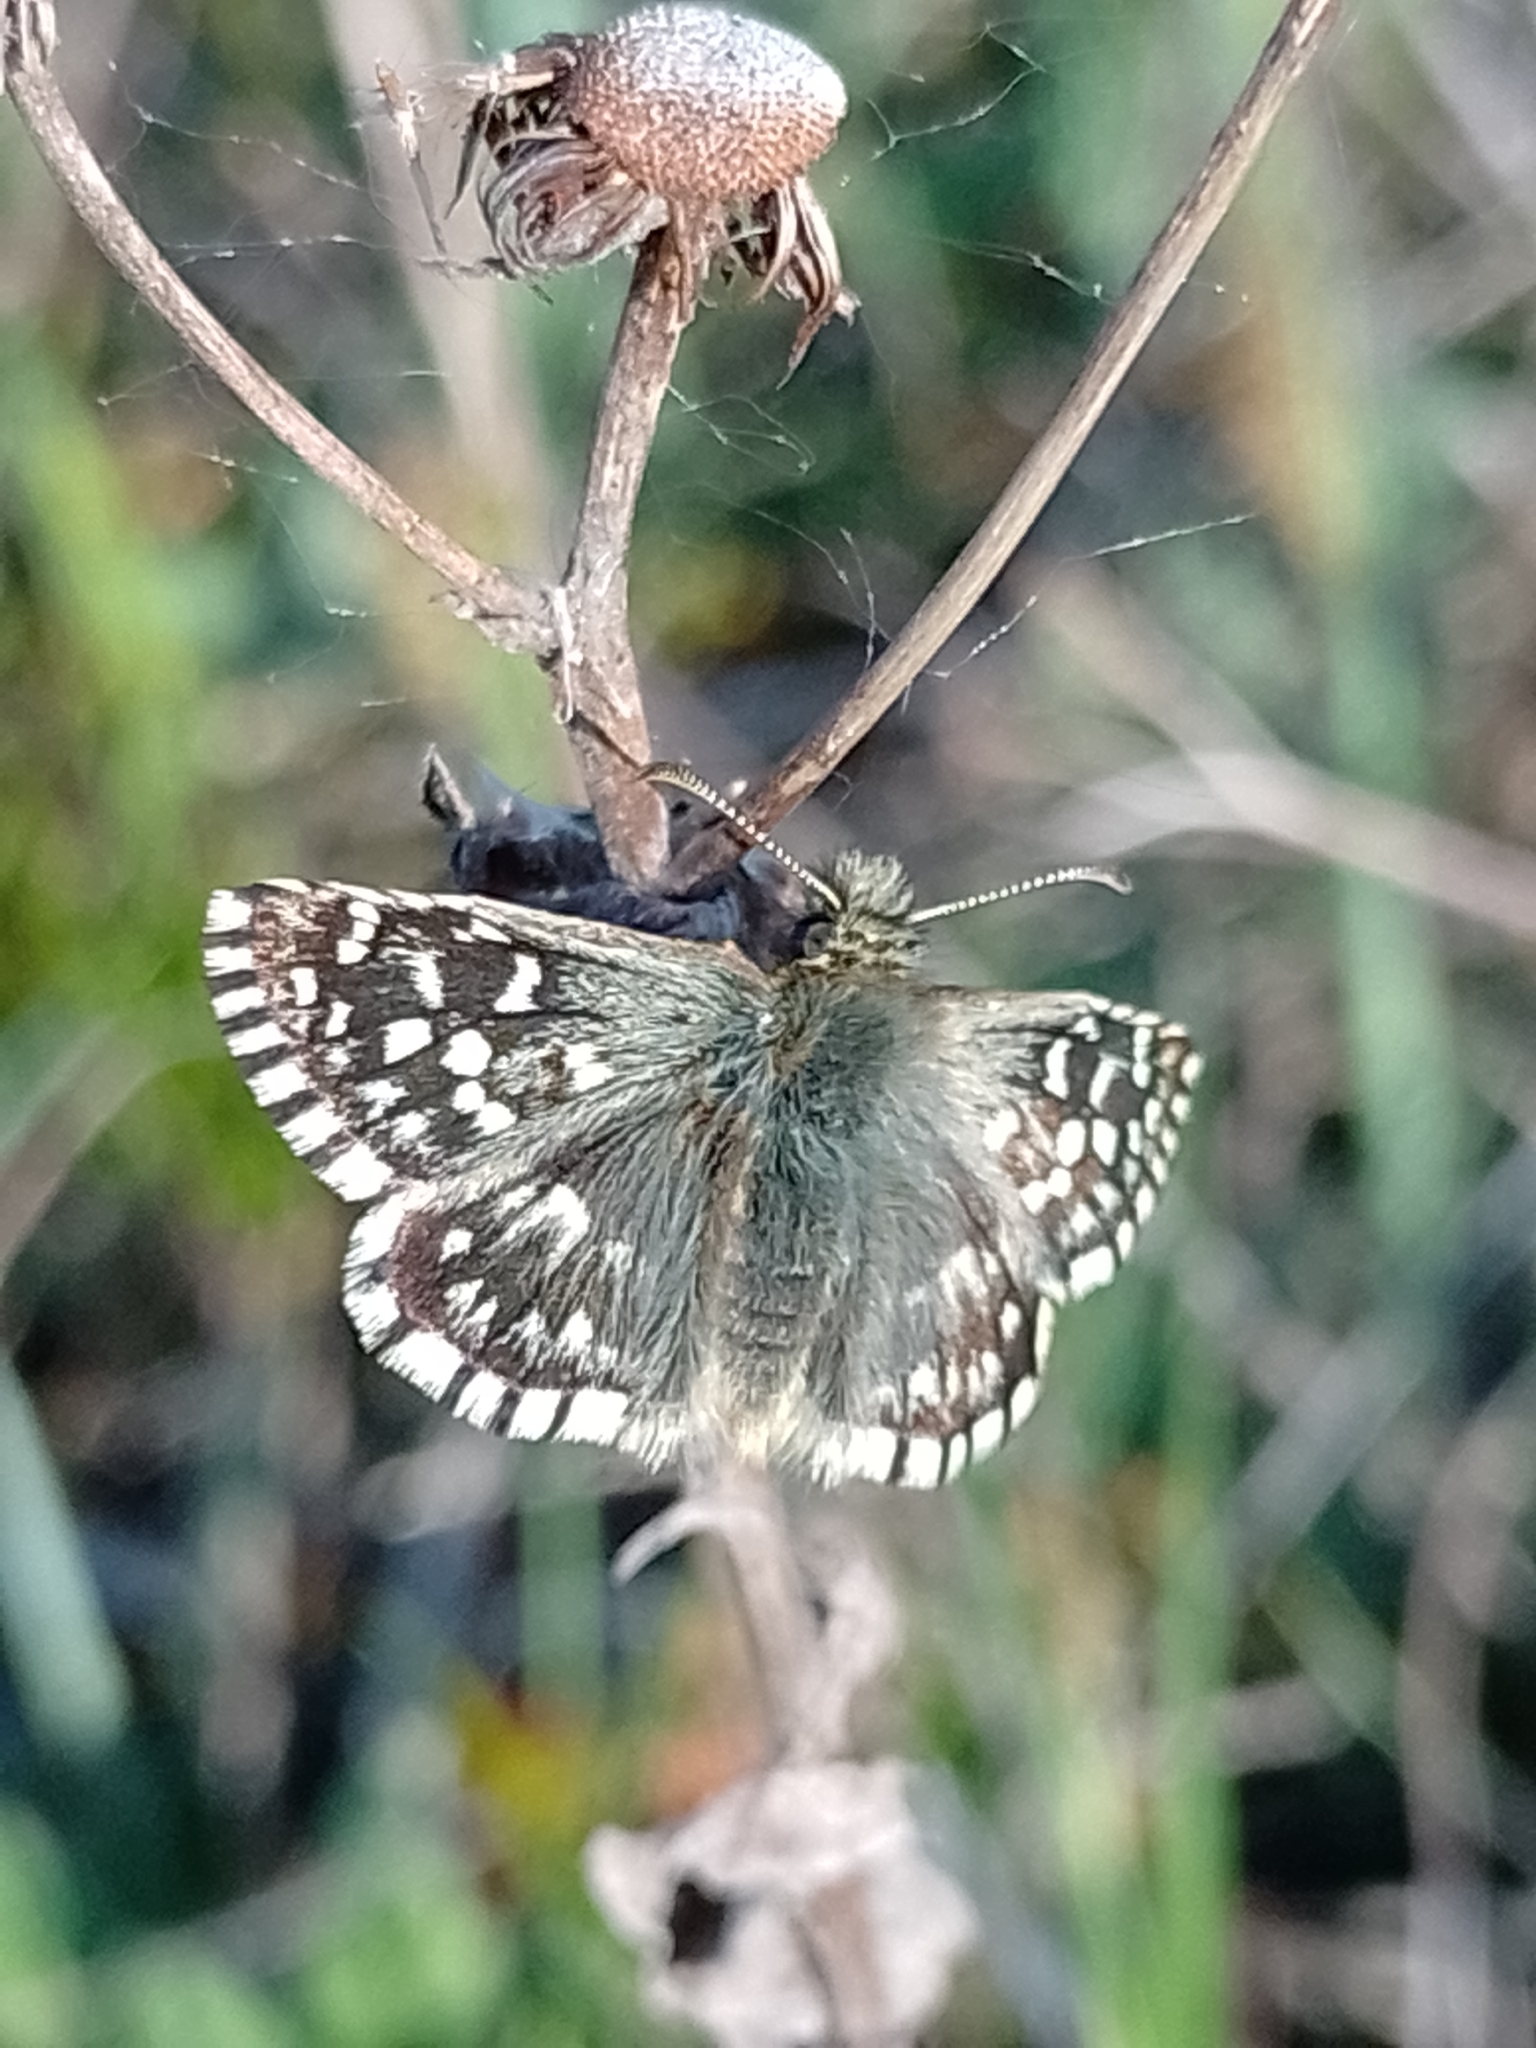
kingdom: Animalia
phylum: Arthropoda
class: Insecta
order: Lepidoptera
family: Hesperiidae
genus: Pyrgus
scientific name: Pyrgus malvae
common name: Grizzled skipper
